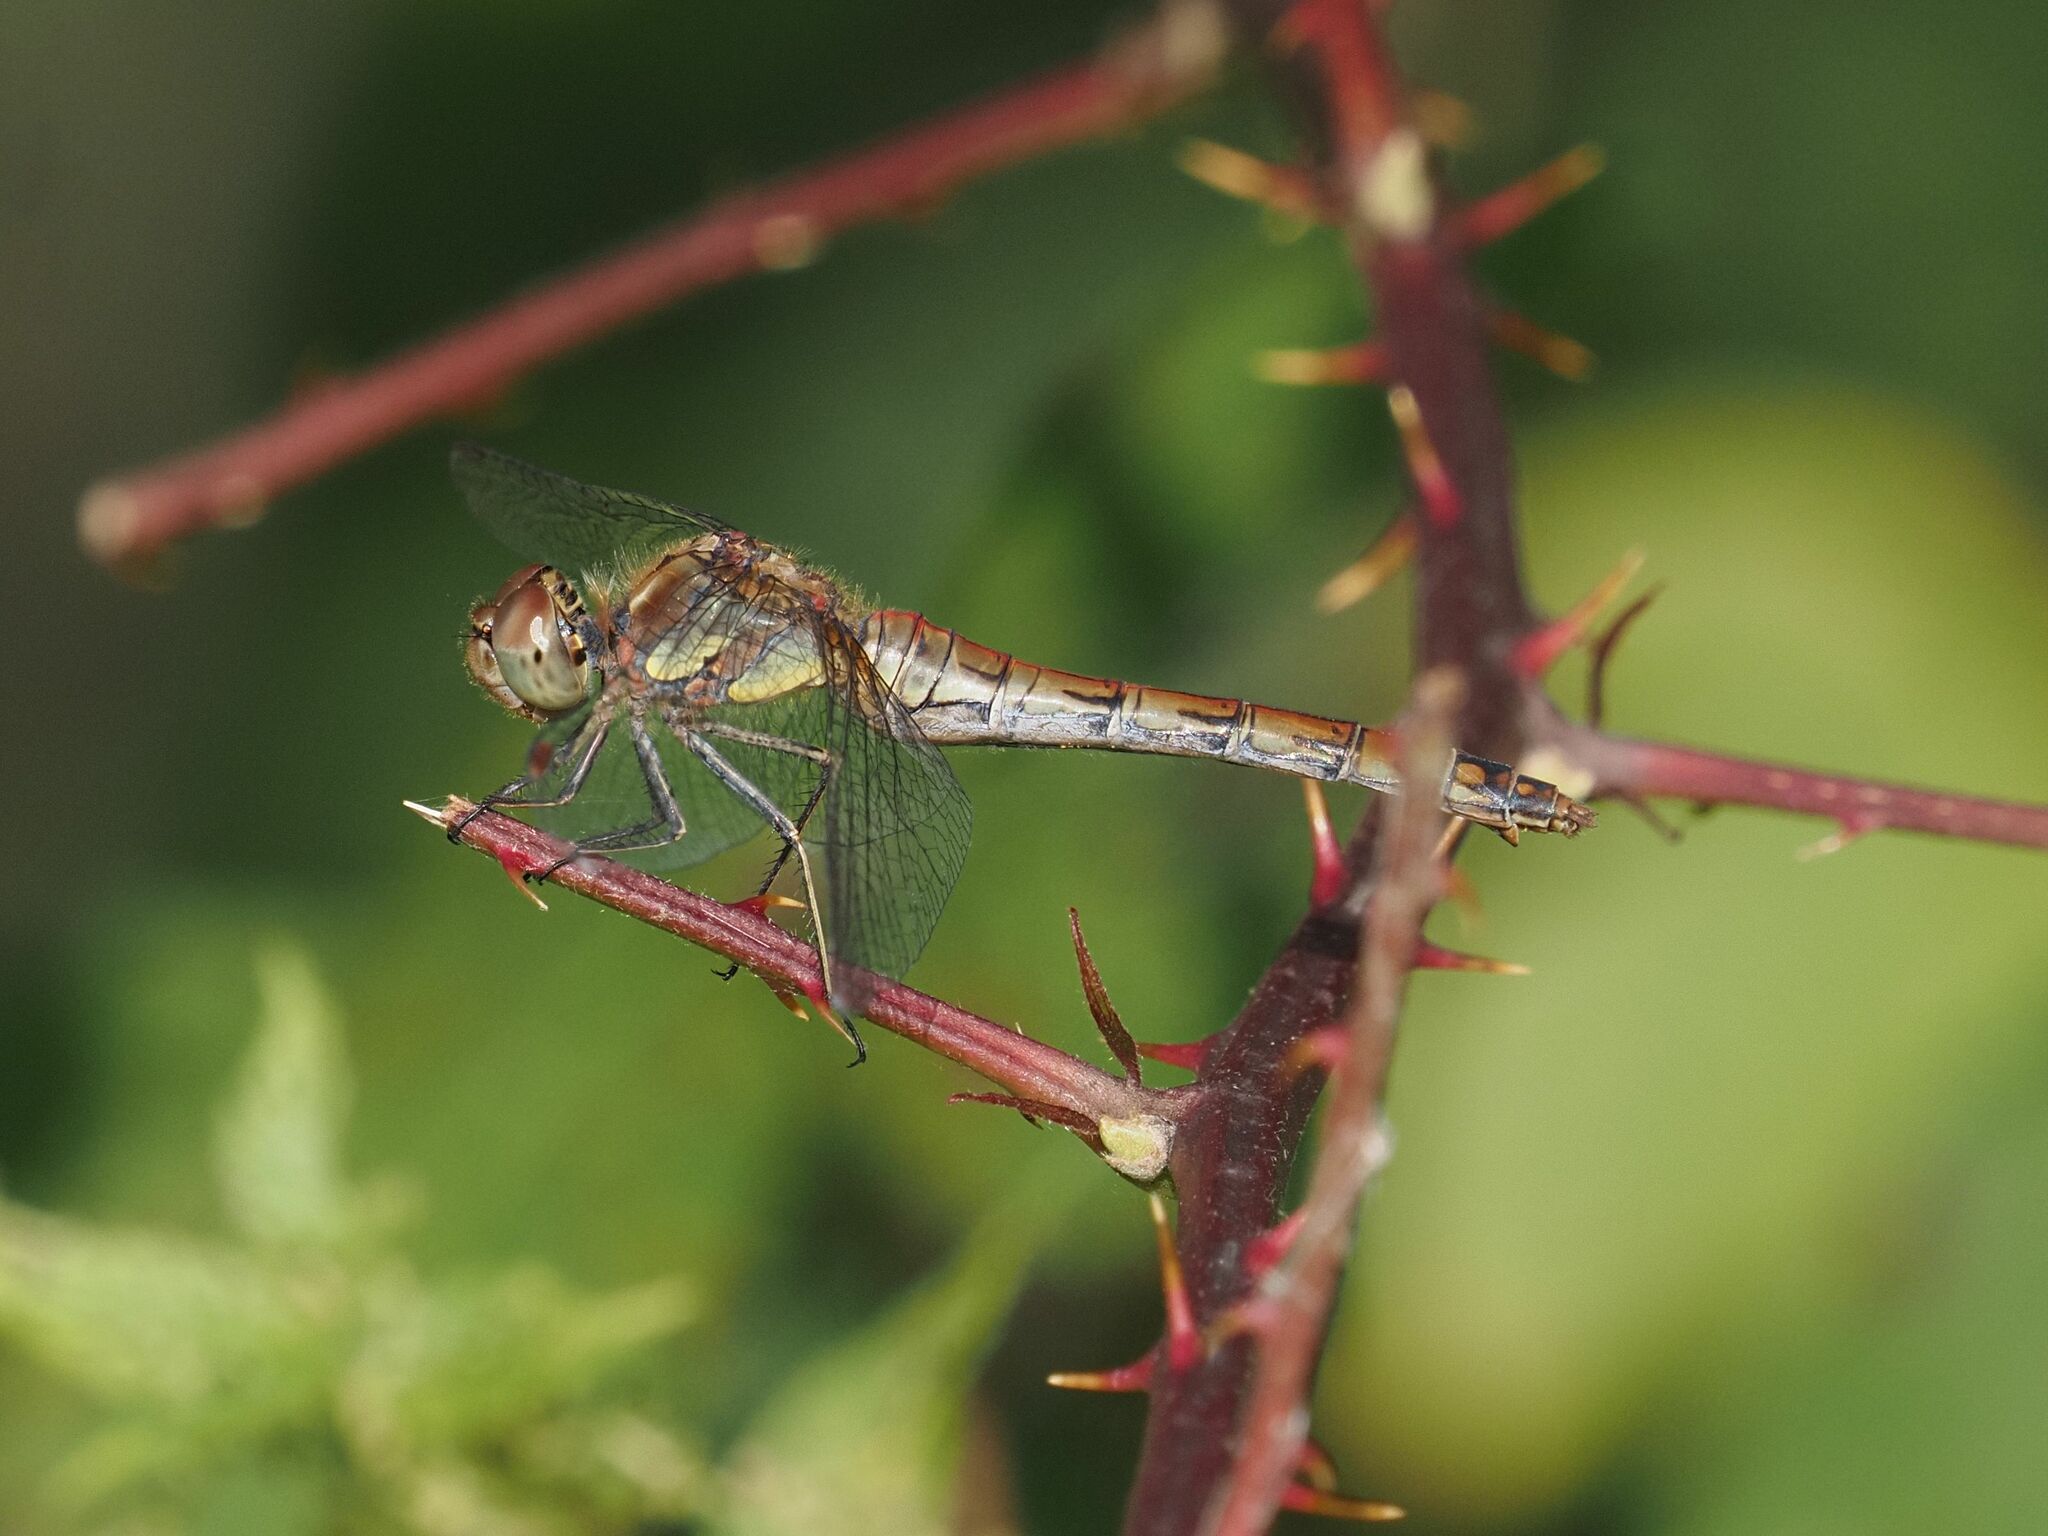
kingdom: Animalia
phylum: Arthropoda
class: Insecta
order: Odonata
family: Libellulidae
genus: Sympetrum
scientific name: Sympetrum striolatum
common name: Common darter
